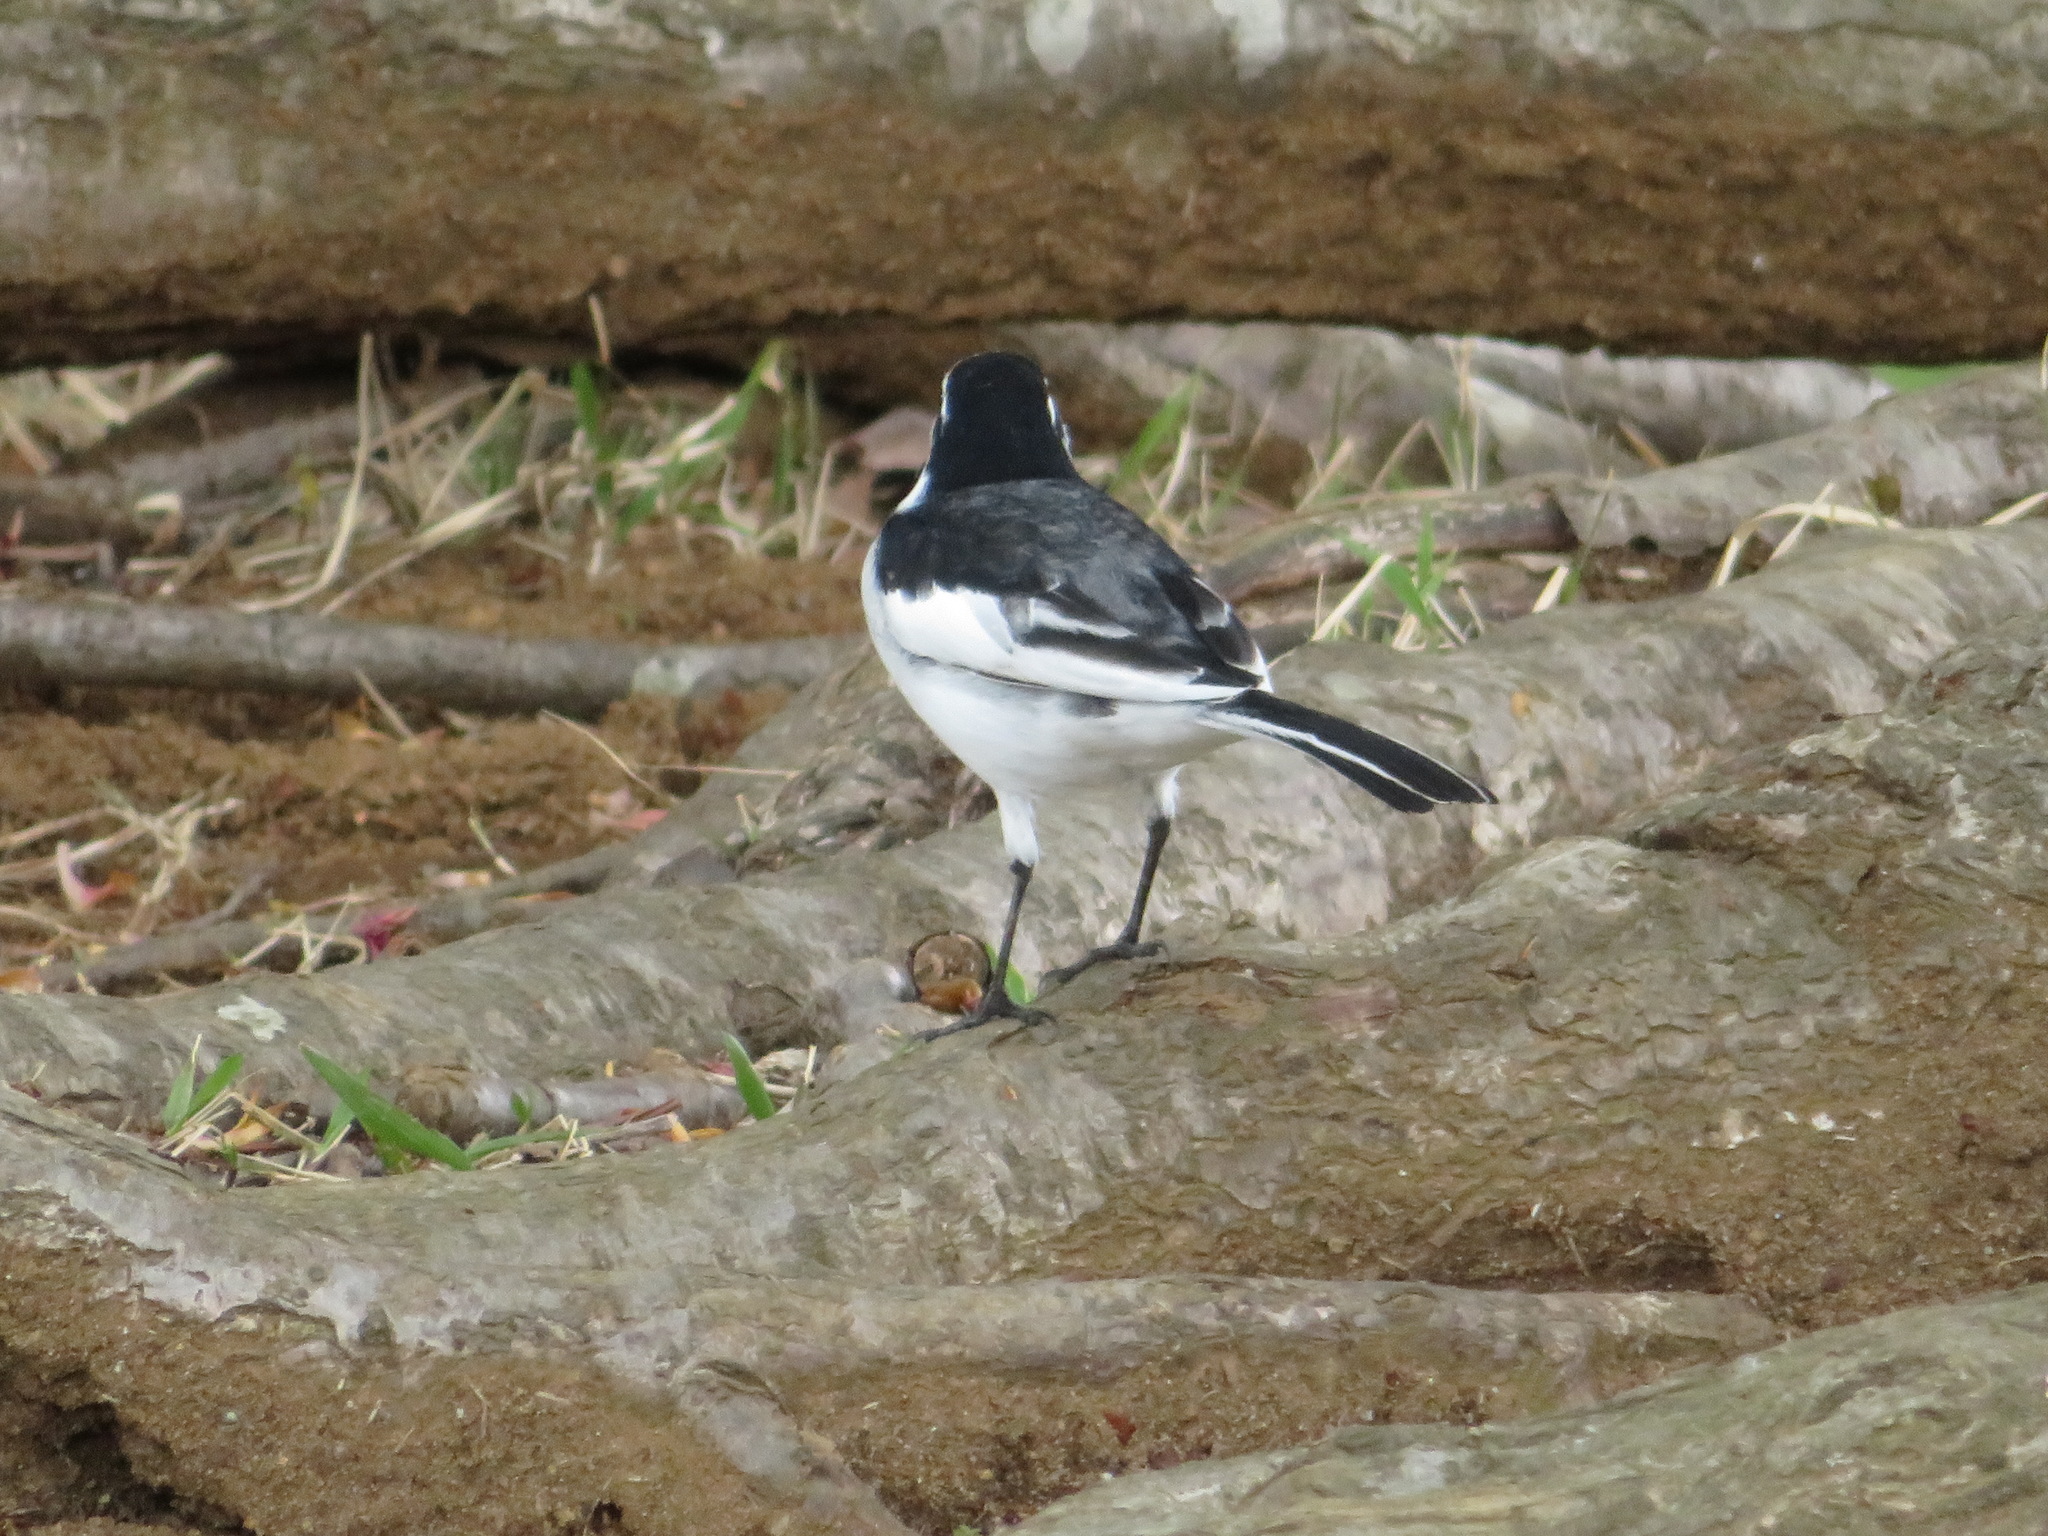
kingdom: Animalia
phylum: Chordata
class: Aves
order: Passeriformes
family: Motacillidae
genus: Motacilla
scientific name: Motacilla alba
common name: White wagtail
